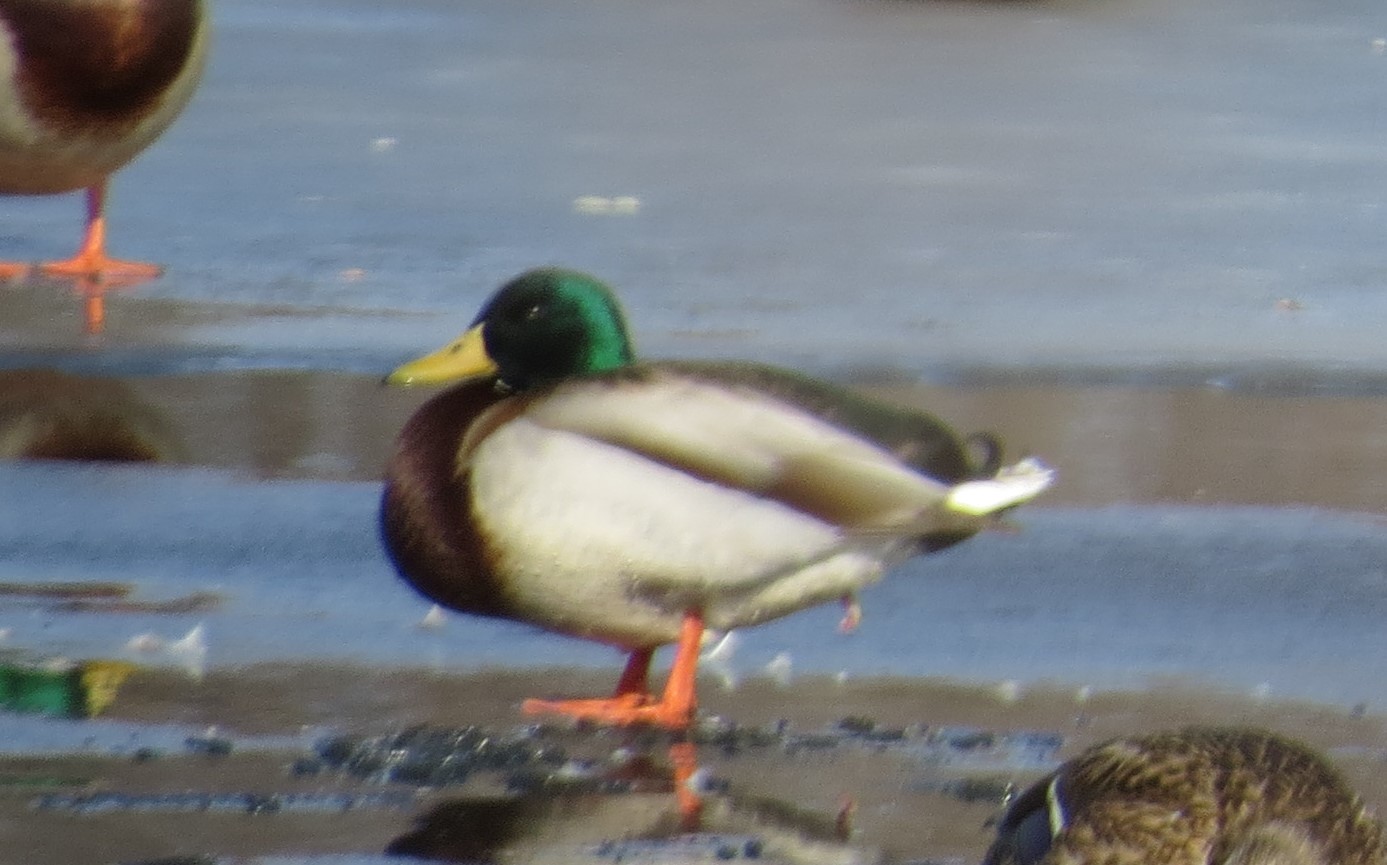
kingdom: Animalia
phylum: Chordata
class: Aves
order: Anseriformes
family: Anatidae
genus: Anas
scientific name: Anas platyrhynchos
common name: Mallard
